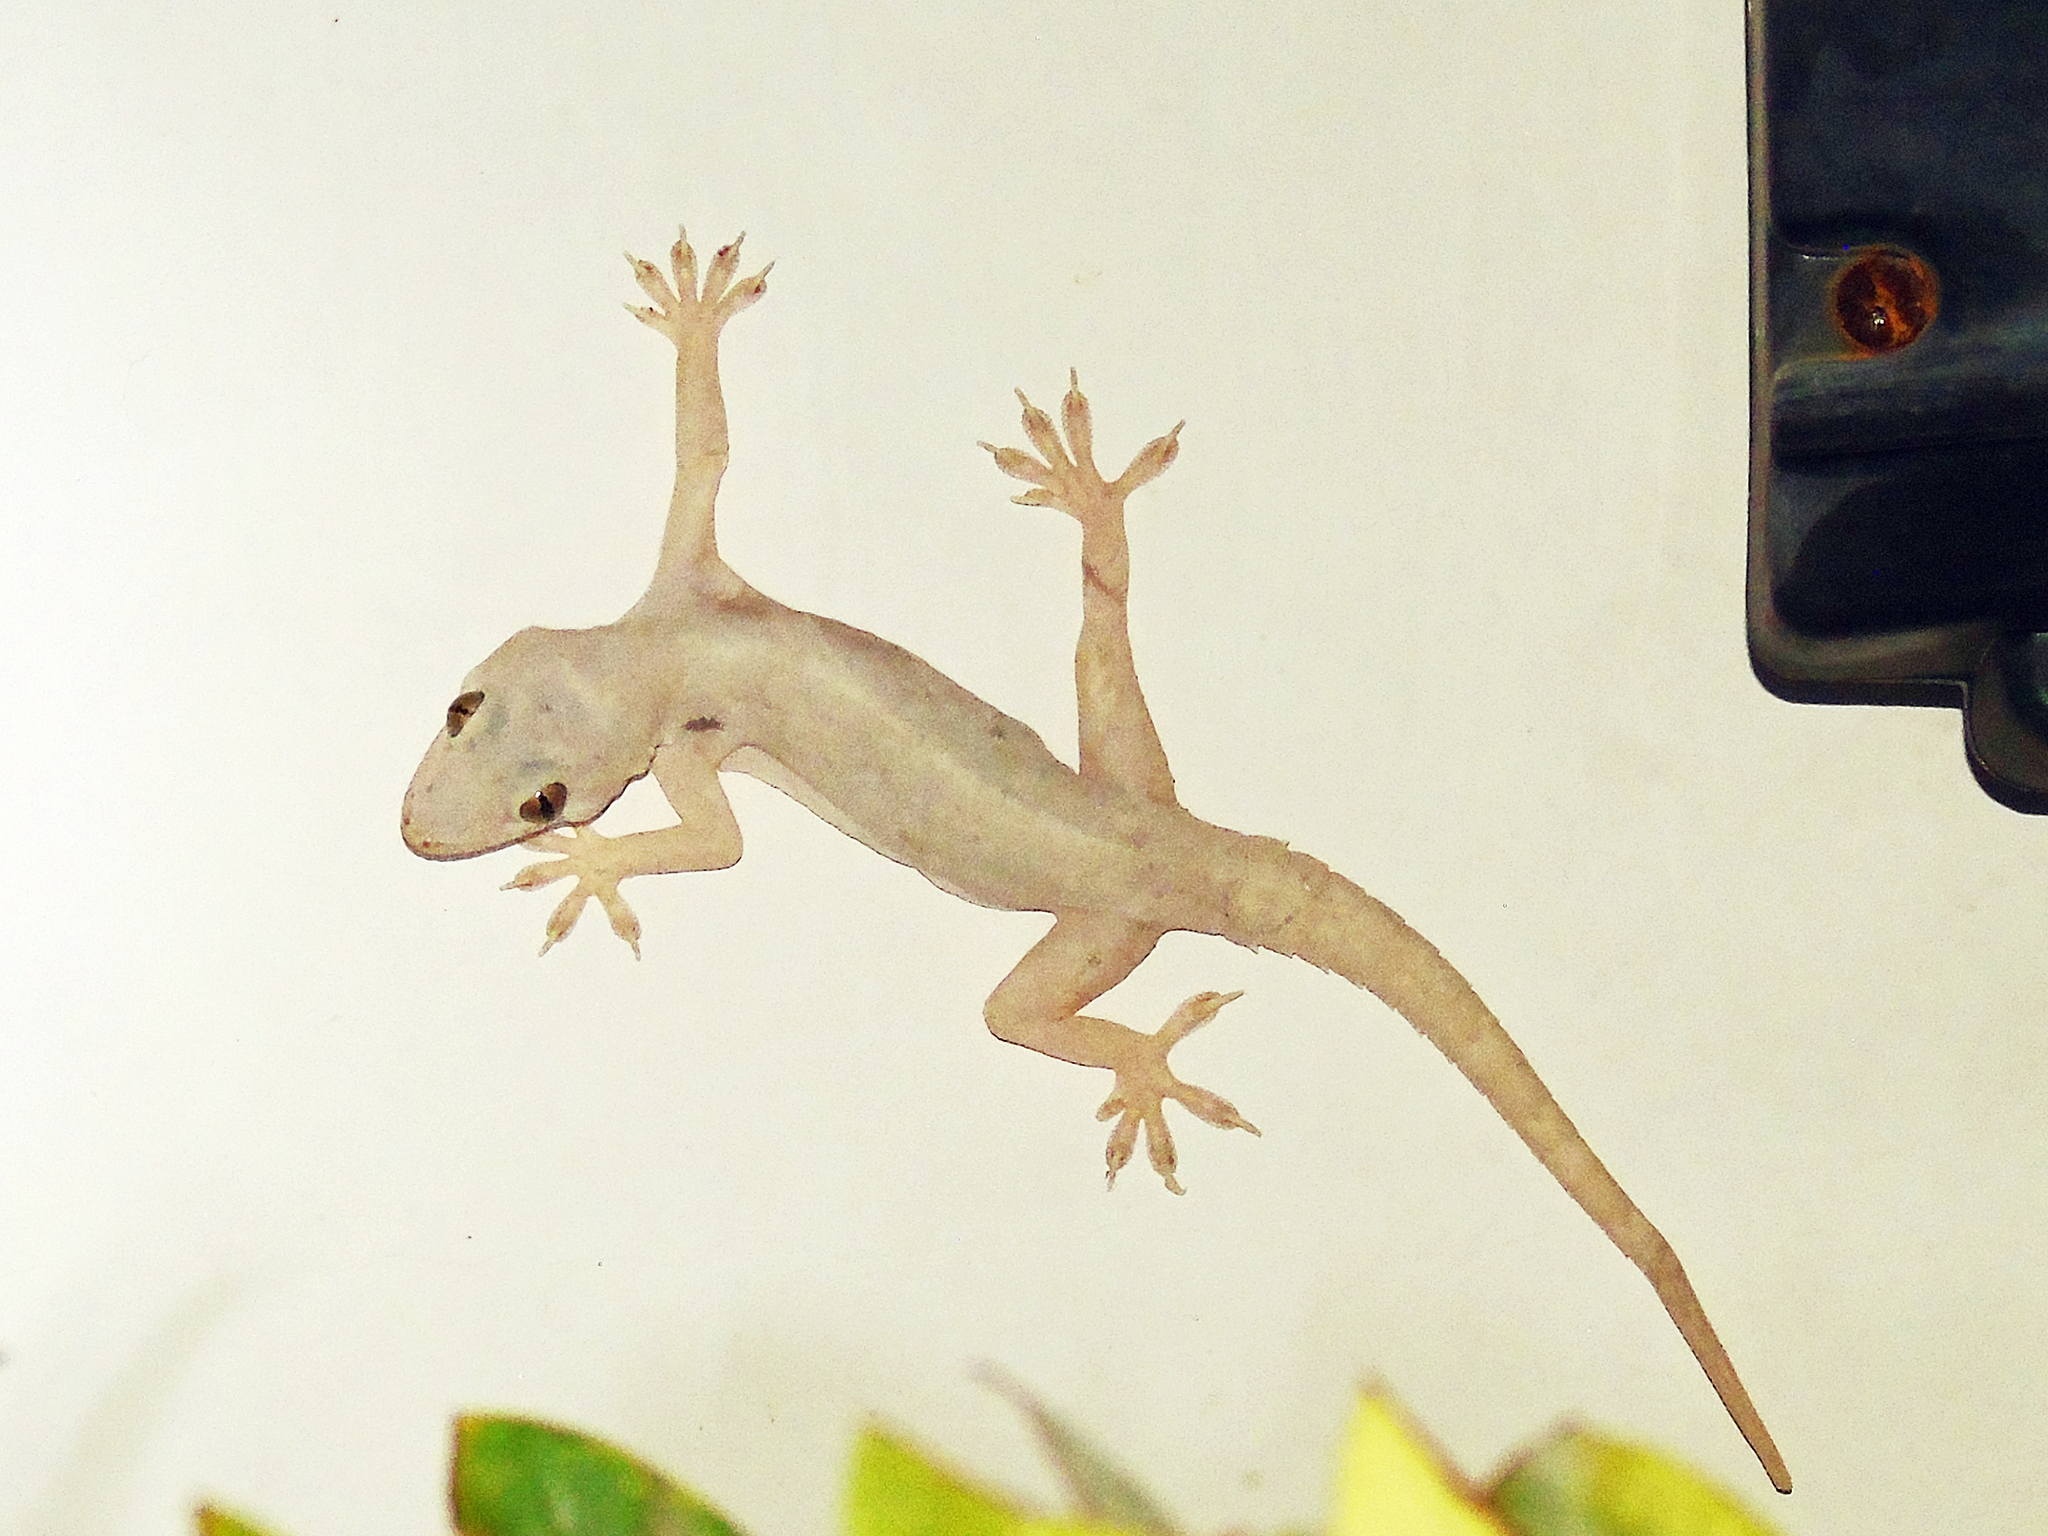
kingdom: Animalia
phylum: Chordata
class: Squamata
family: Gekkonidae
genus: Hemidactylus
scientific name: Hemidactylus flaviviridis
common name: Northern house gecko
